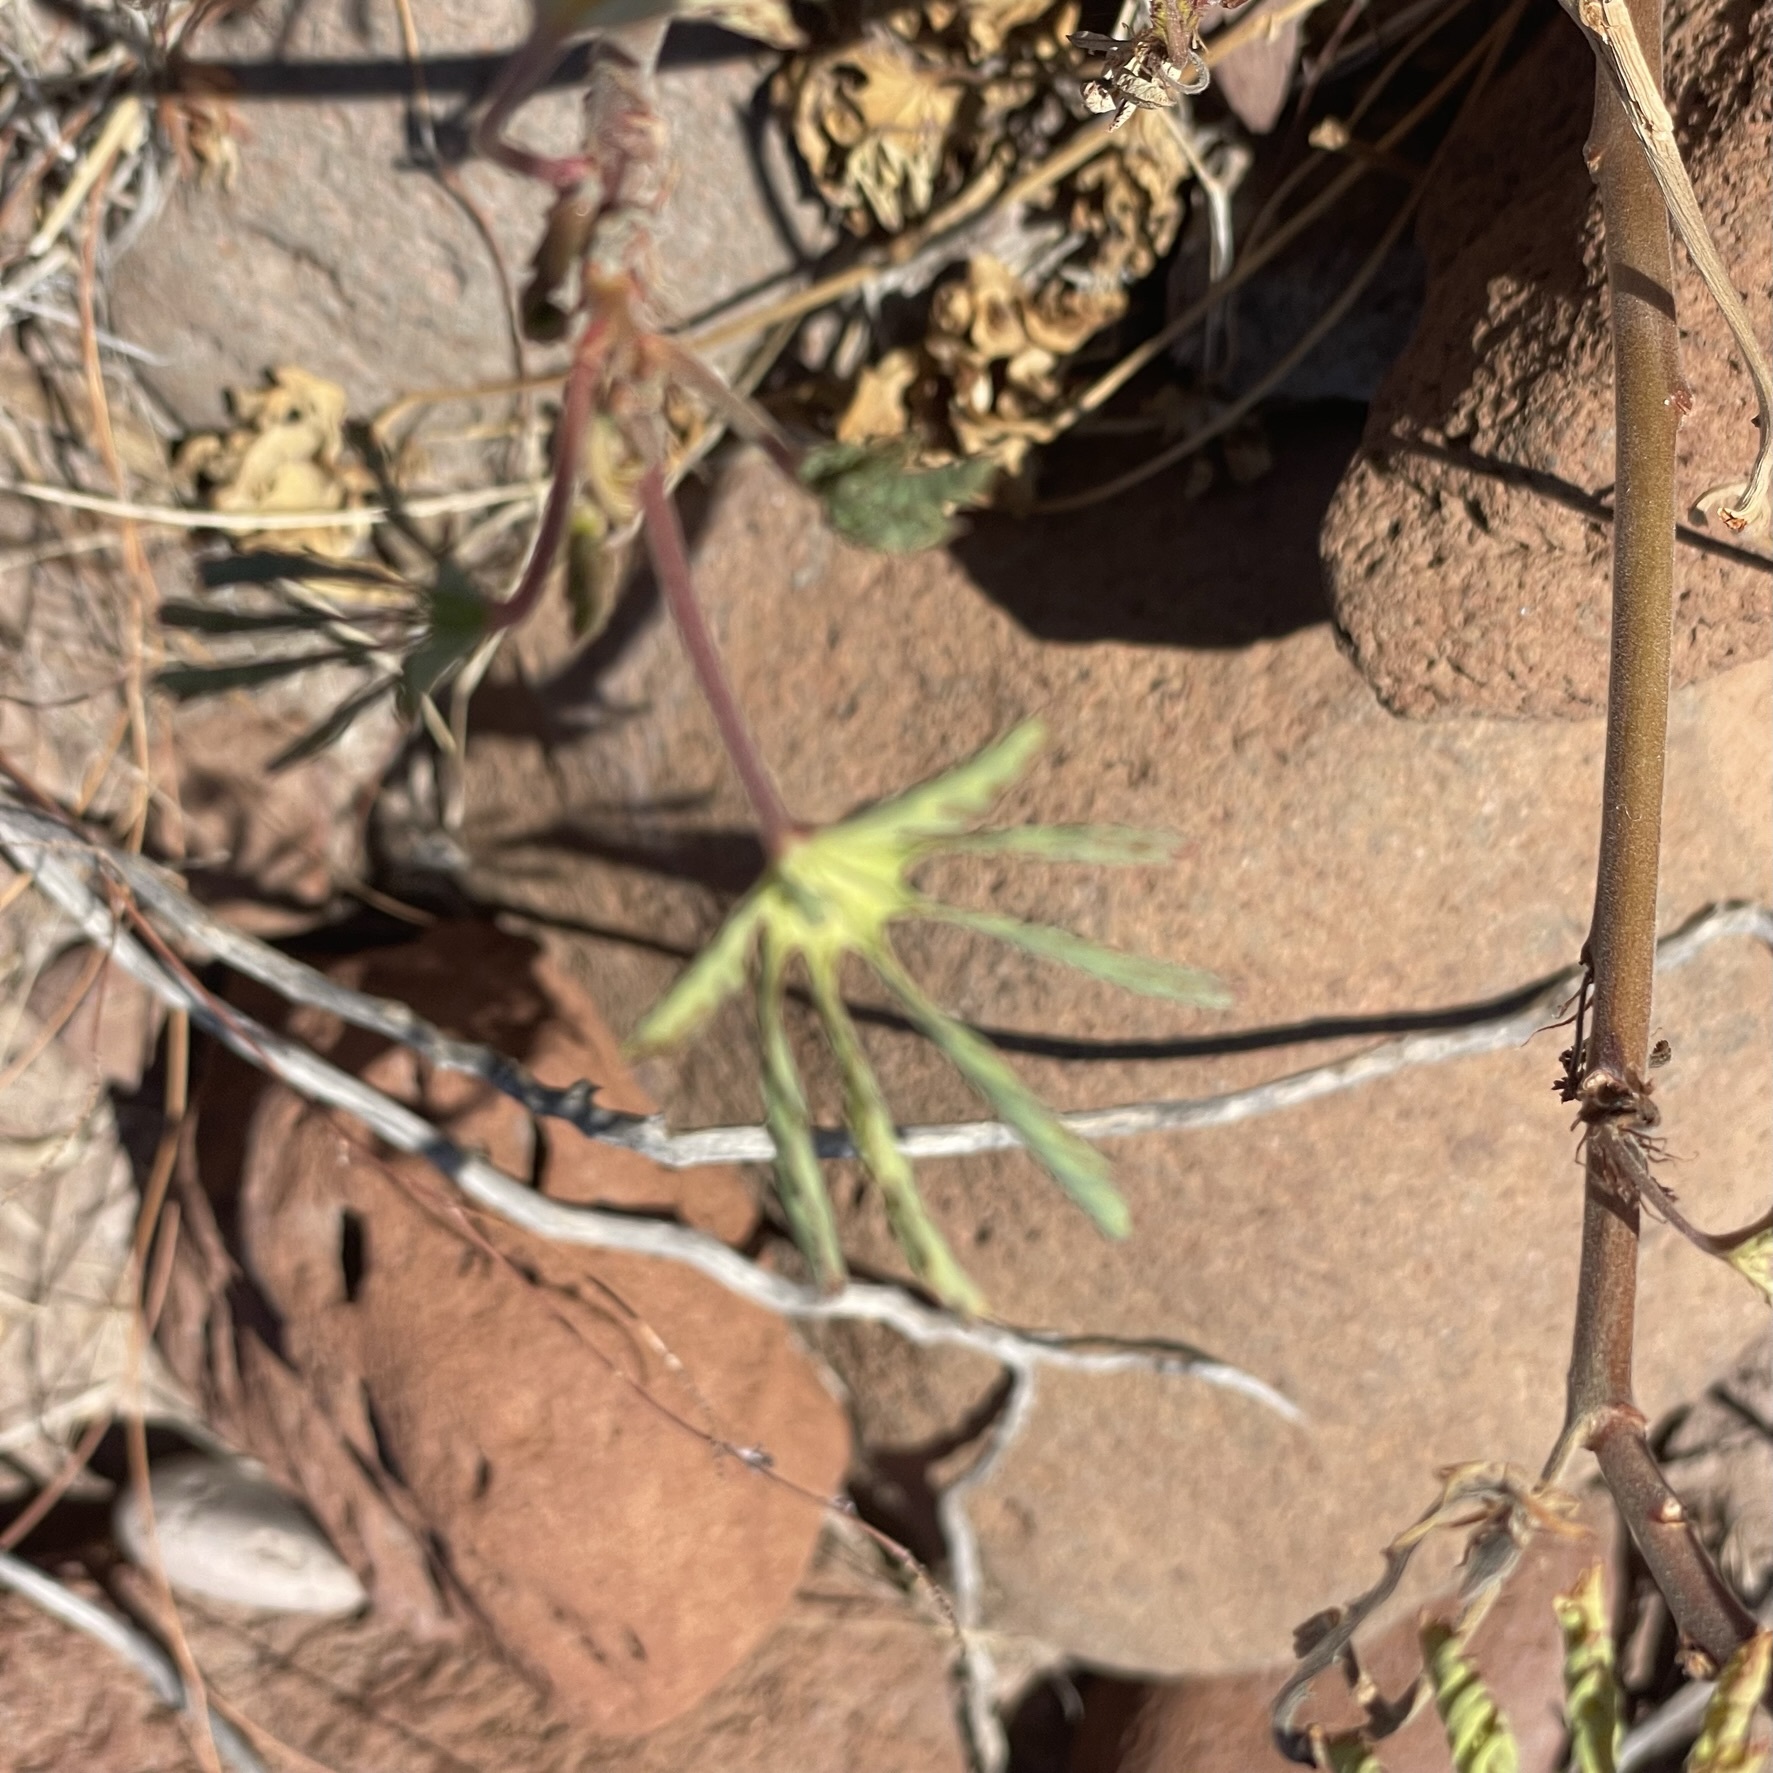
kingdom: Plantae
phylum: Tracheophyta
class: Magnoliopsida
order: Malvales
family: Cochlospermaceae
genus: Cochlospermum
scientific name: Cochlospermum palmatifidum
